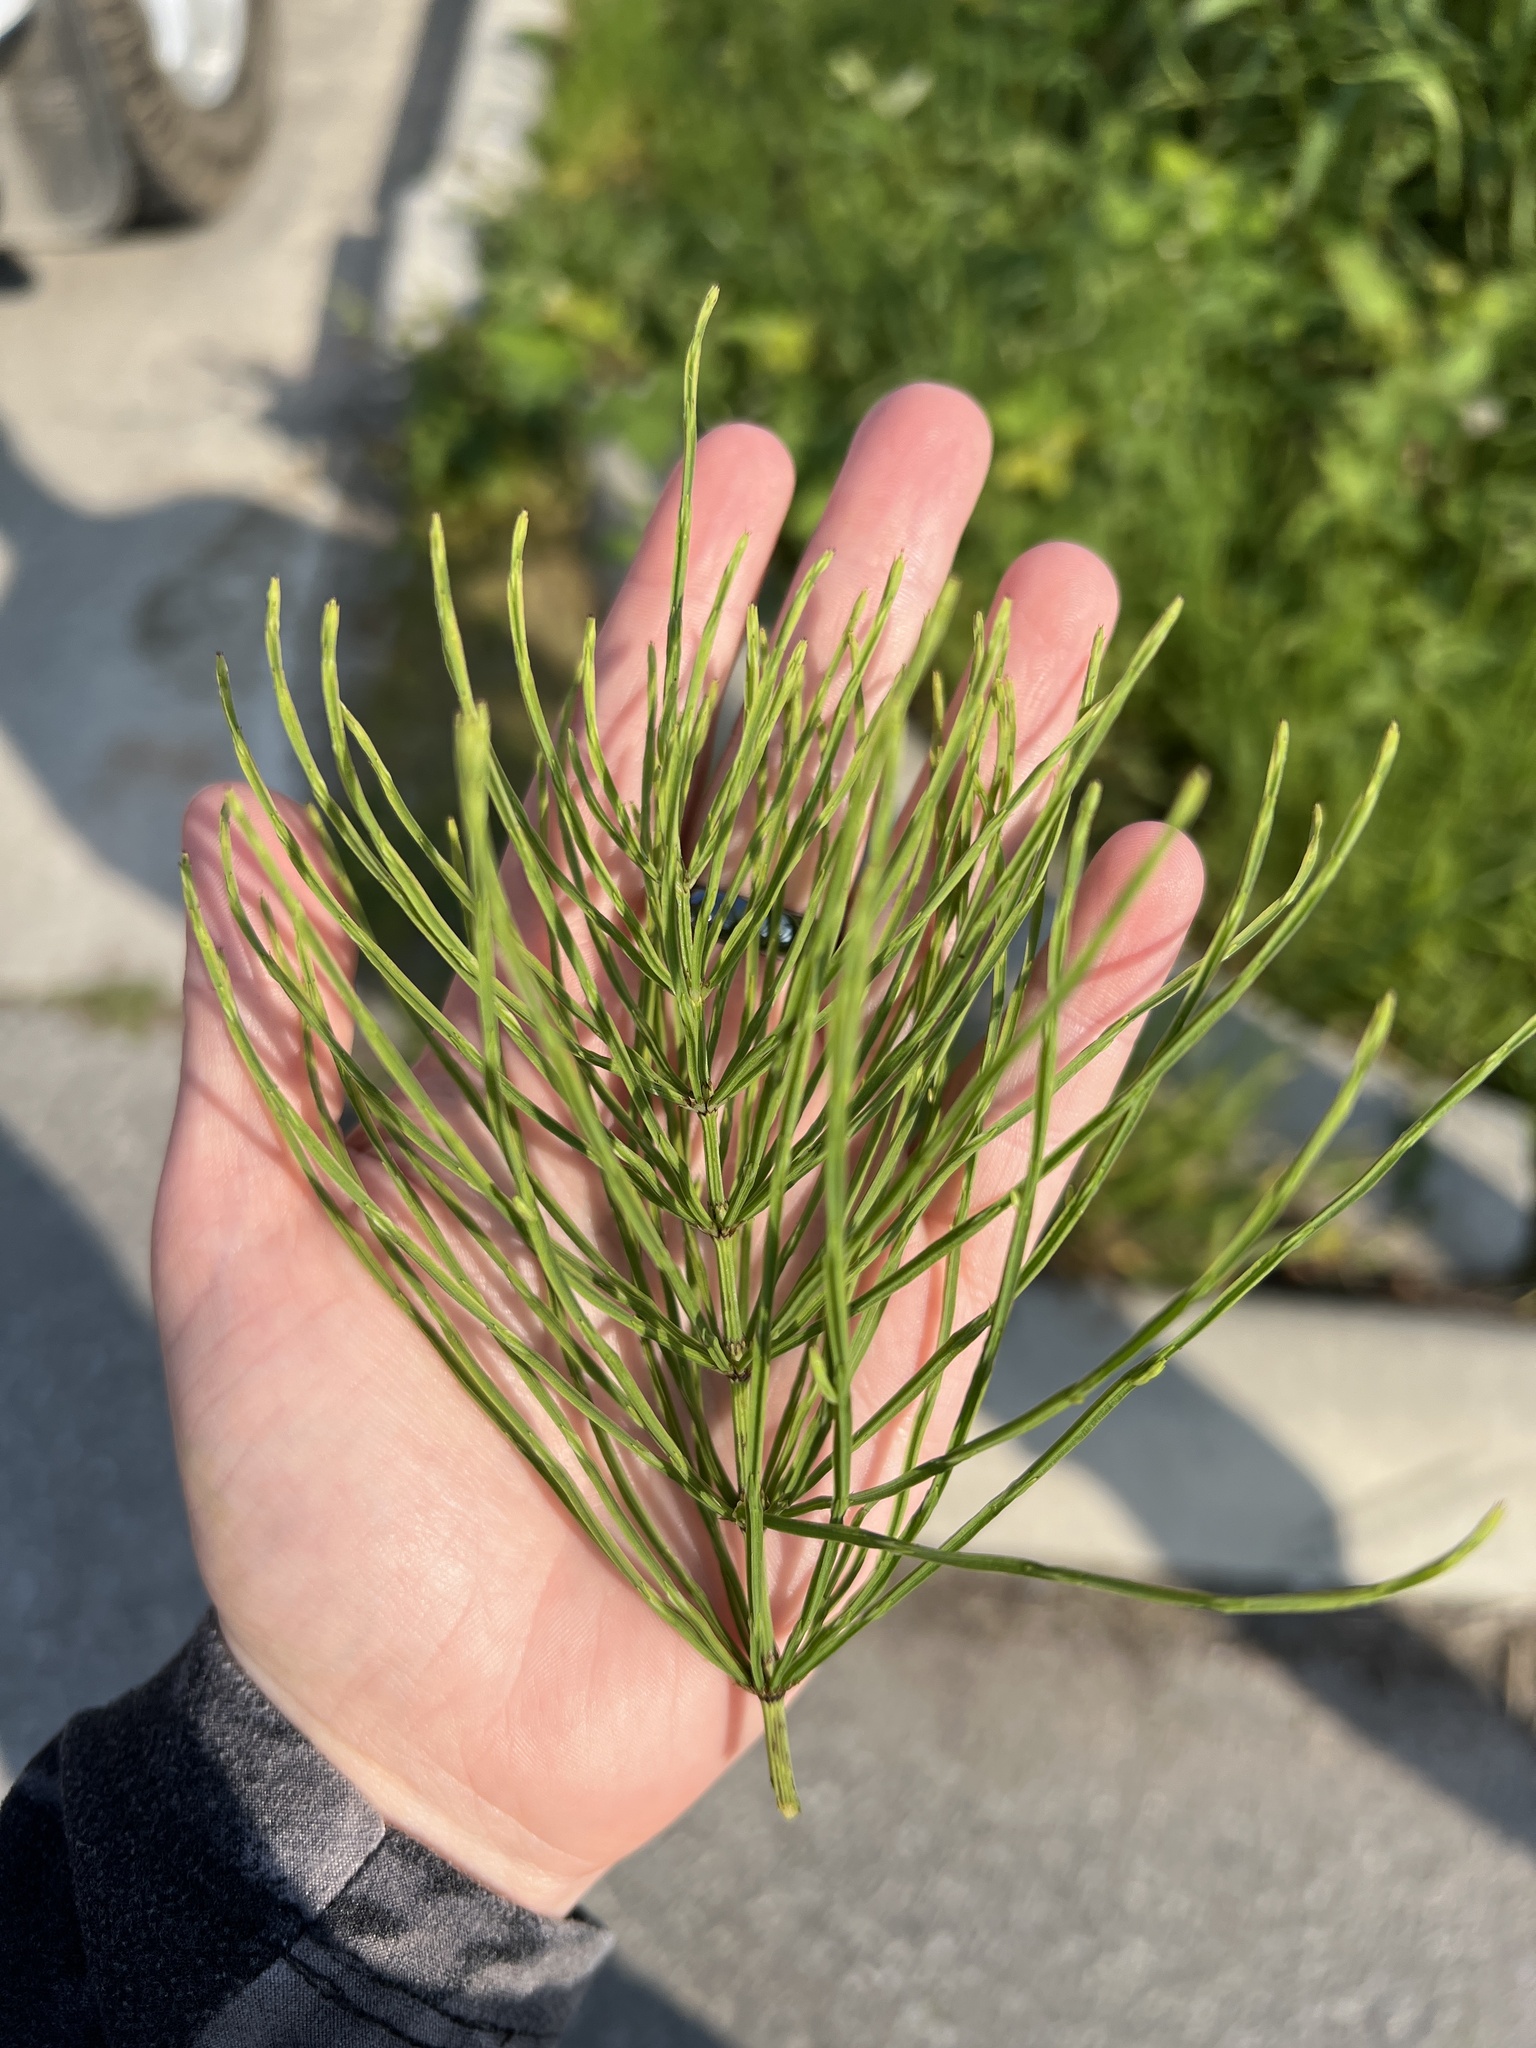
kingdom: Plantae
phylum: Tracheophyta
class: Polypodiopsida
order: Equisetales
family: Equisetaceae
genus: Equisetum
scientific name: Equisetum arvense
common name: Field horsetail
